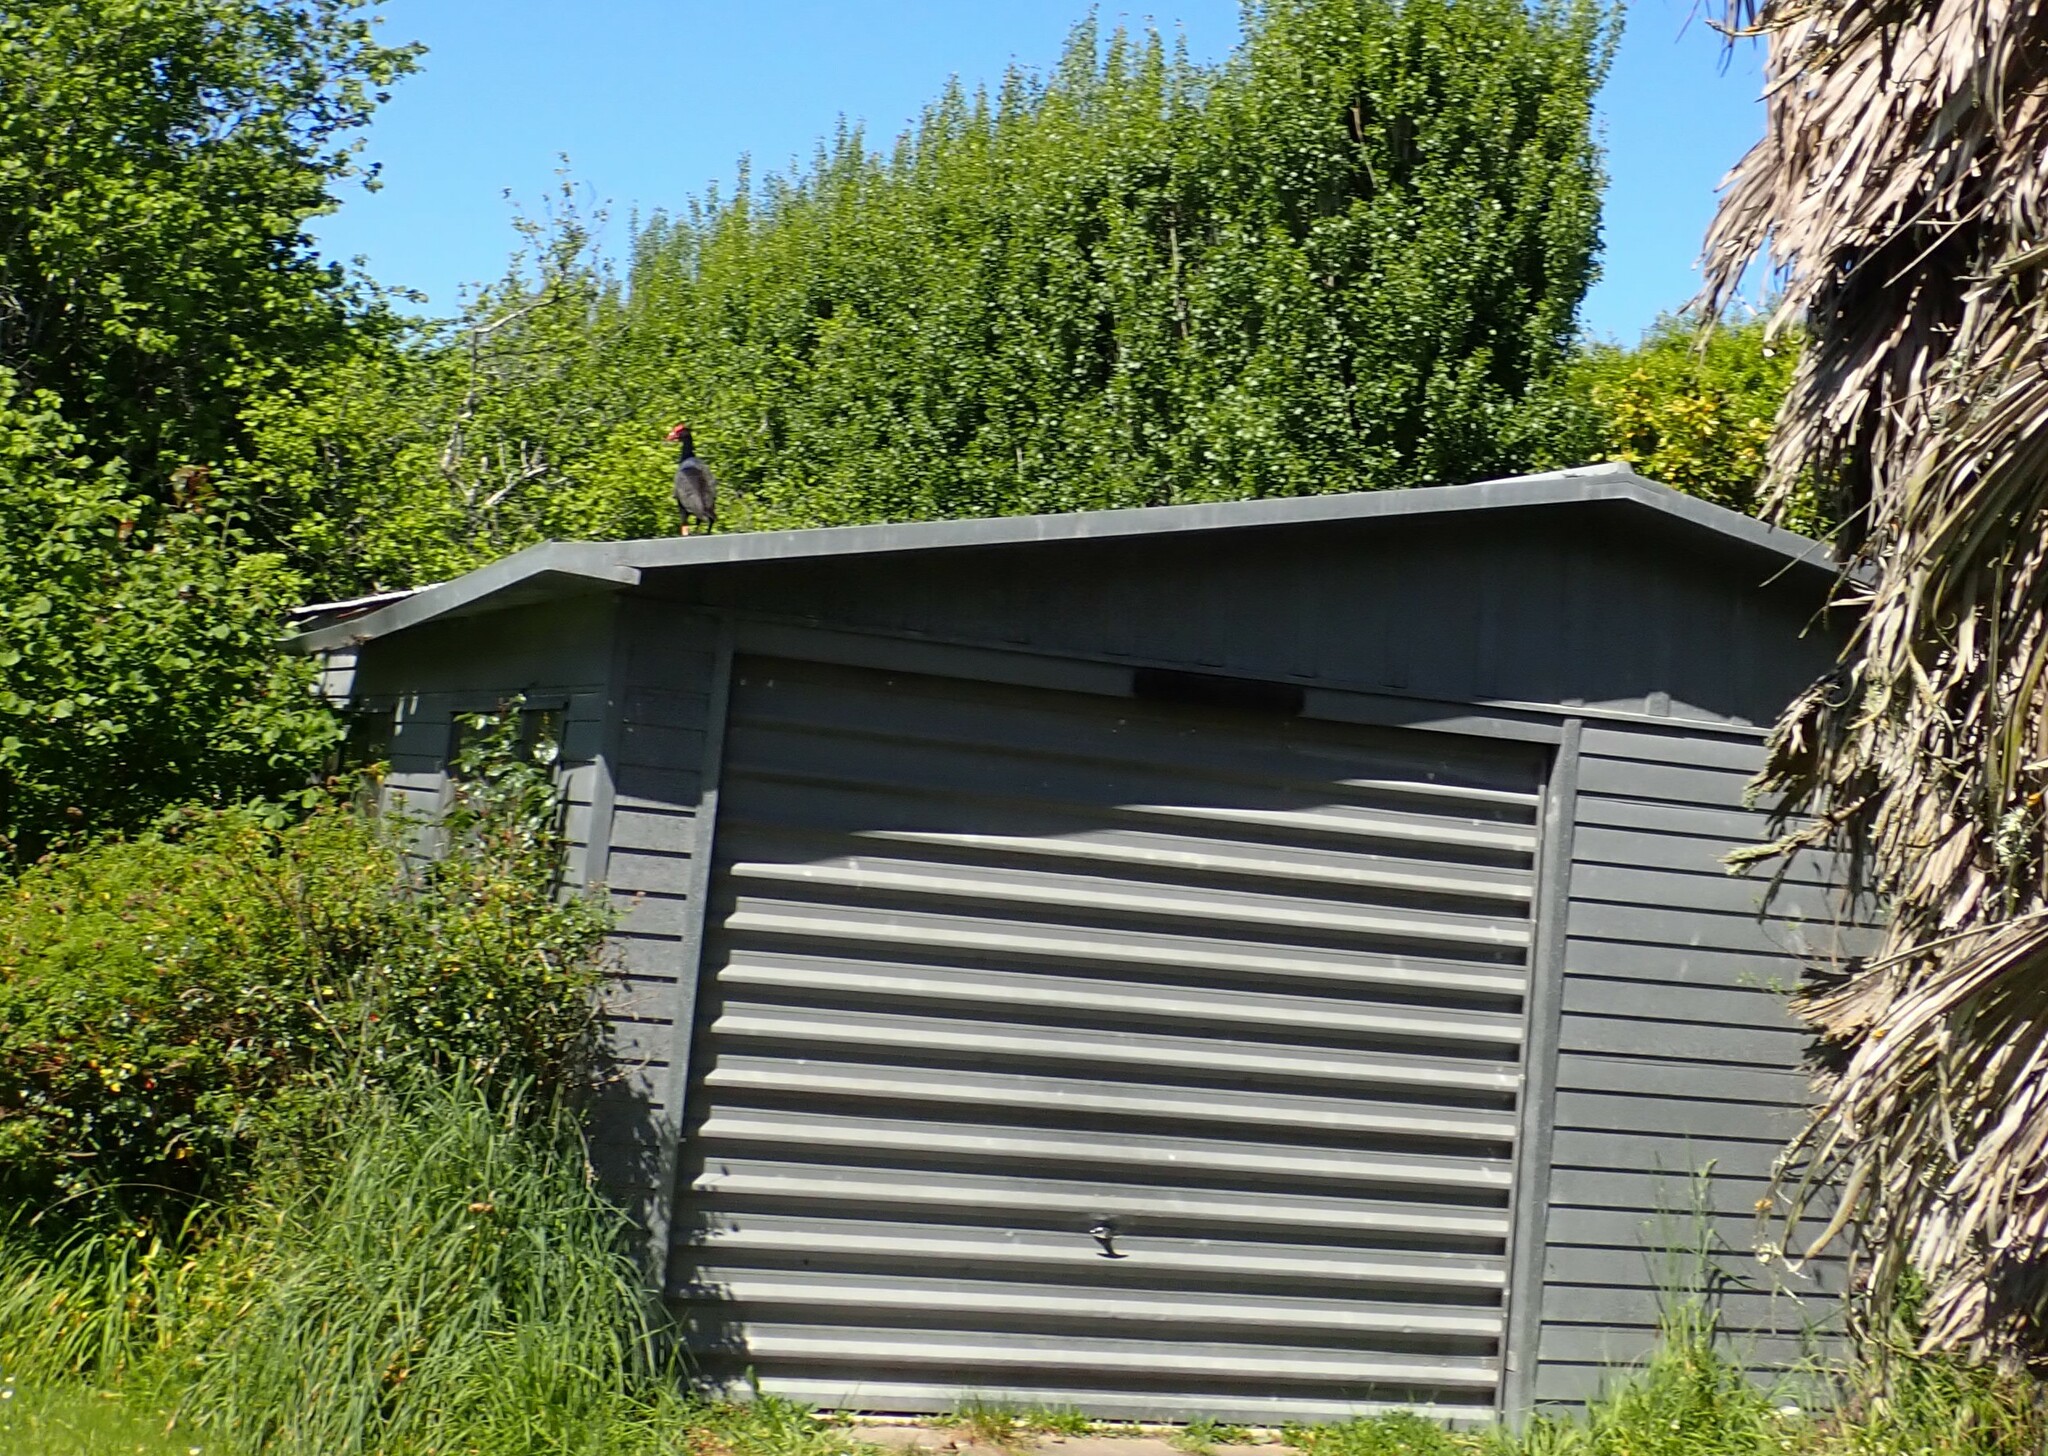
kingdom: Animalia
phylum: Chordata
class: Aves
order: Gruiformes
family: Rallidae
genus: Porphyrio
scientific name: Porphyrio melanotus
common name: Australasian swamphen
